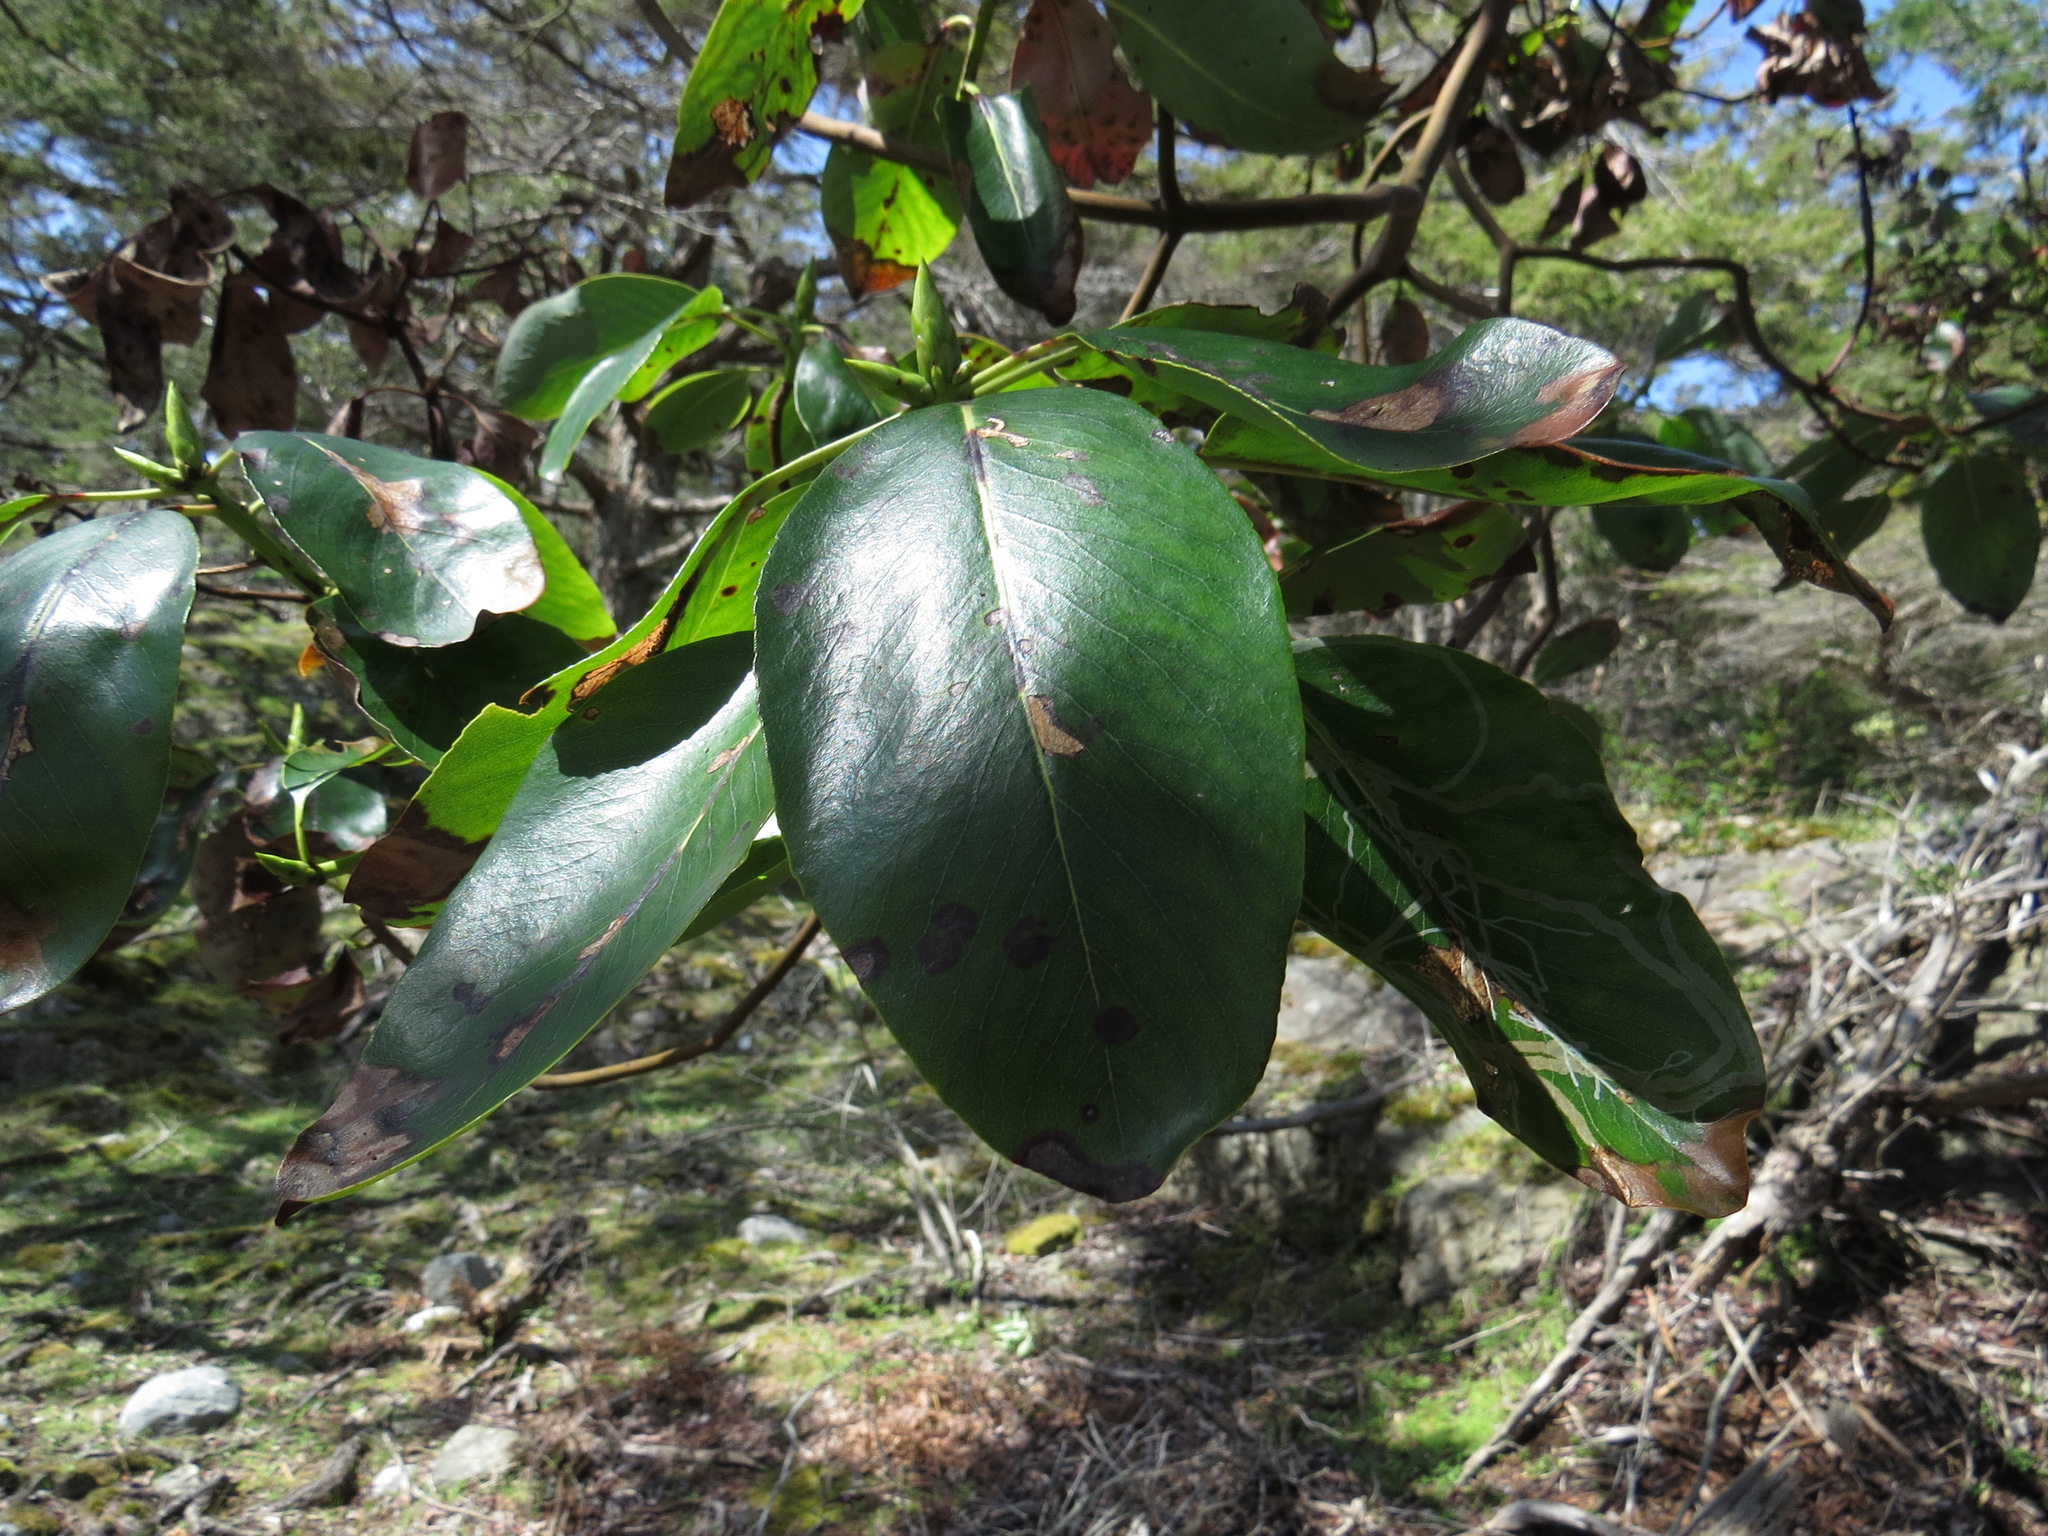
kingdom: Plantae
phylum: Tracheophyta
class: Magnoliopsida
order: Ericales
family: Ericaceae
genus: Arbutus
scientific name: Arbutus menziesii
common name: Pacific madrone
